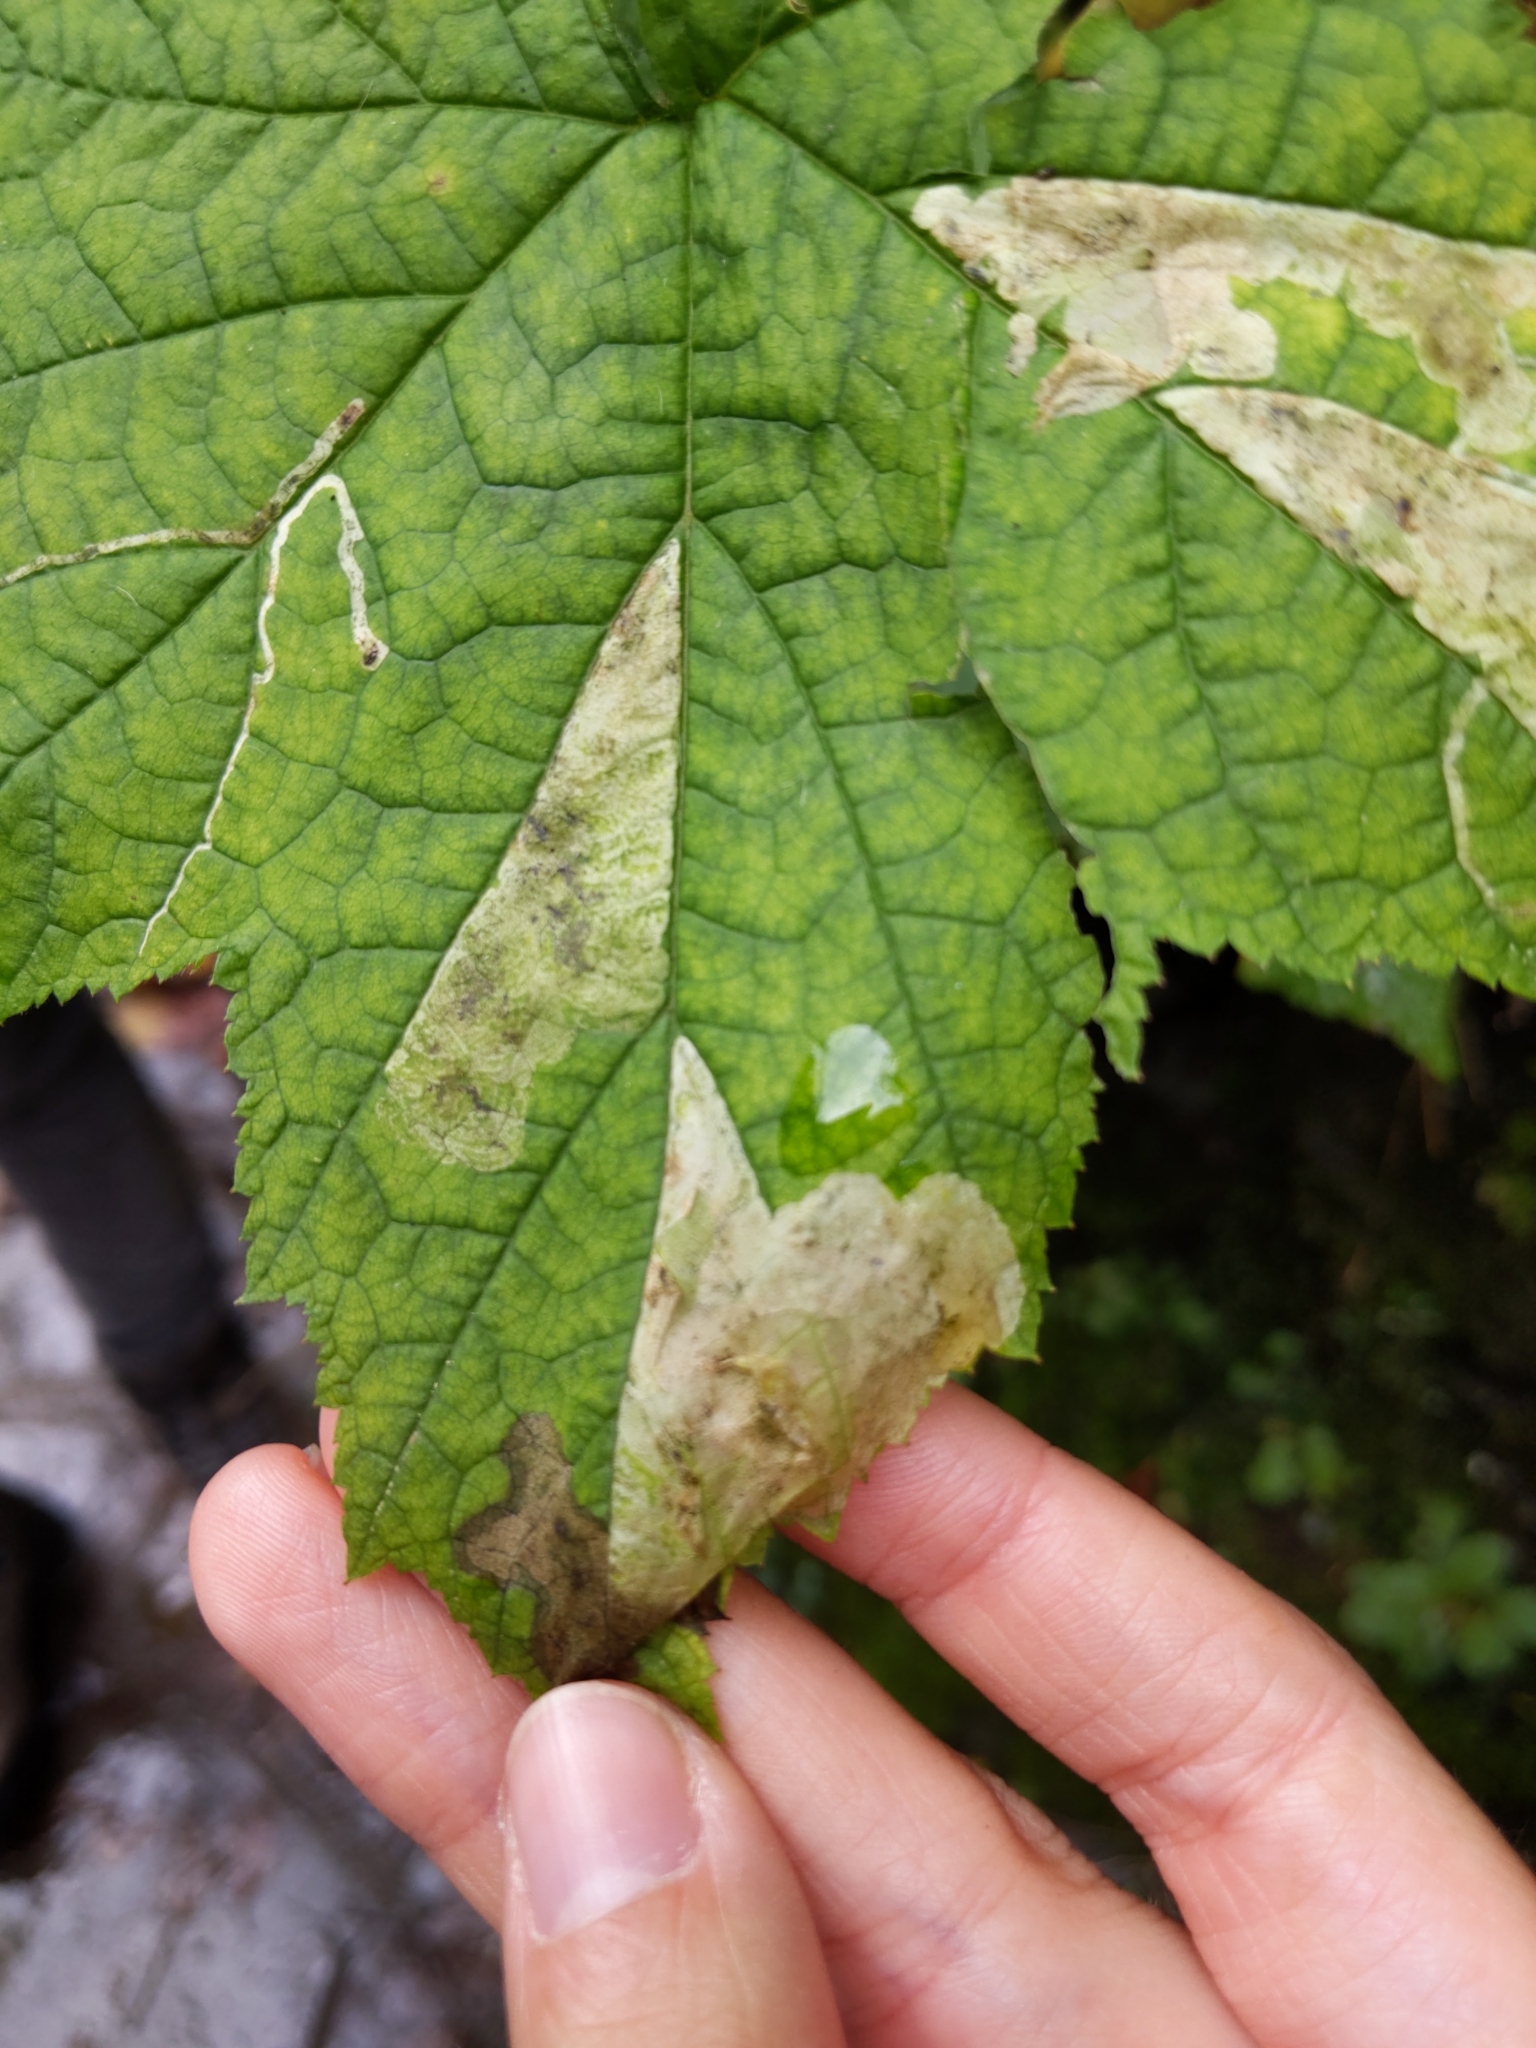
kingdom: Animalia
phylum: Arthropoda
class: Insecta
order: Hymenoptera
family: Tenthredinidae
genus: Metallus
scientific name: Metallus capitalis
